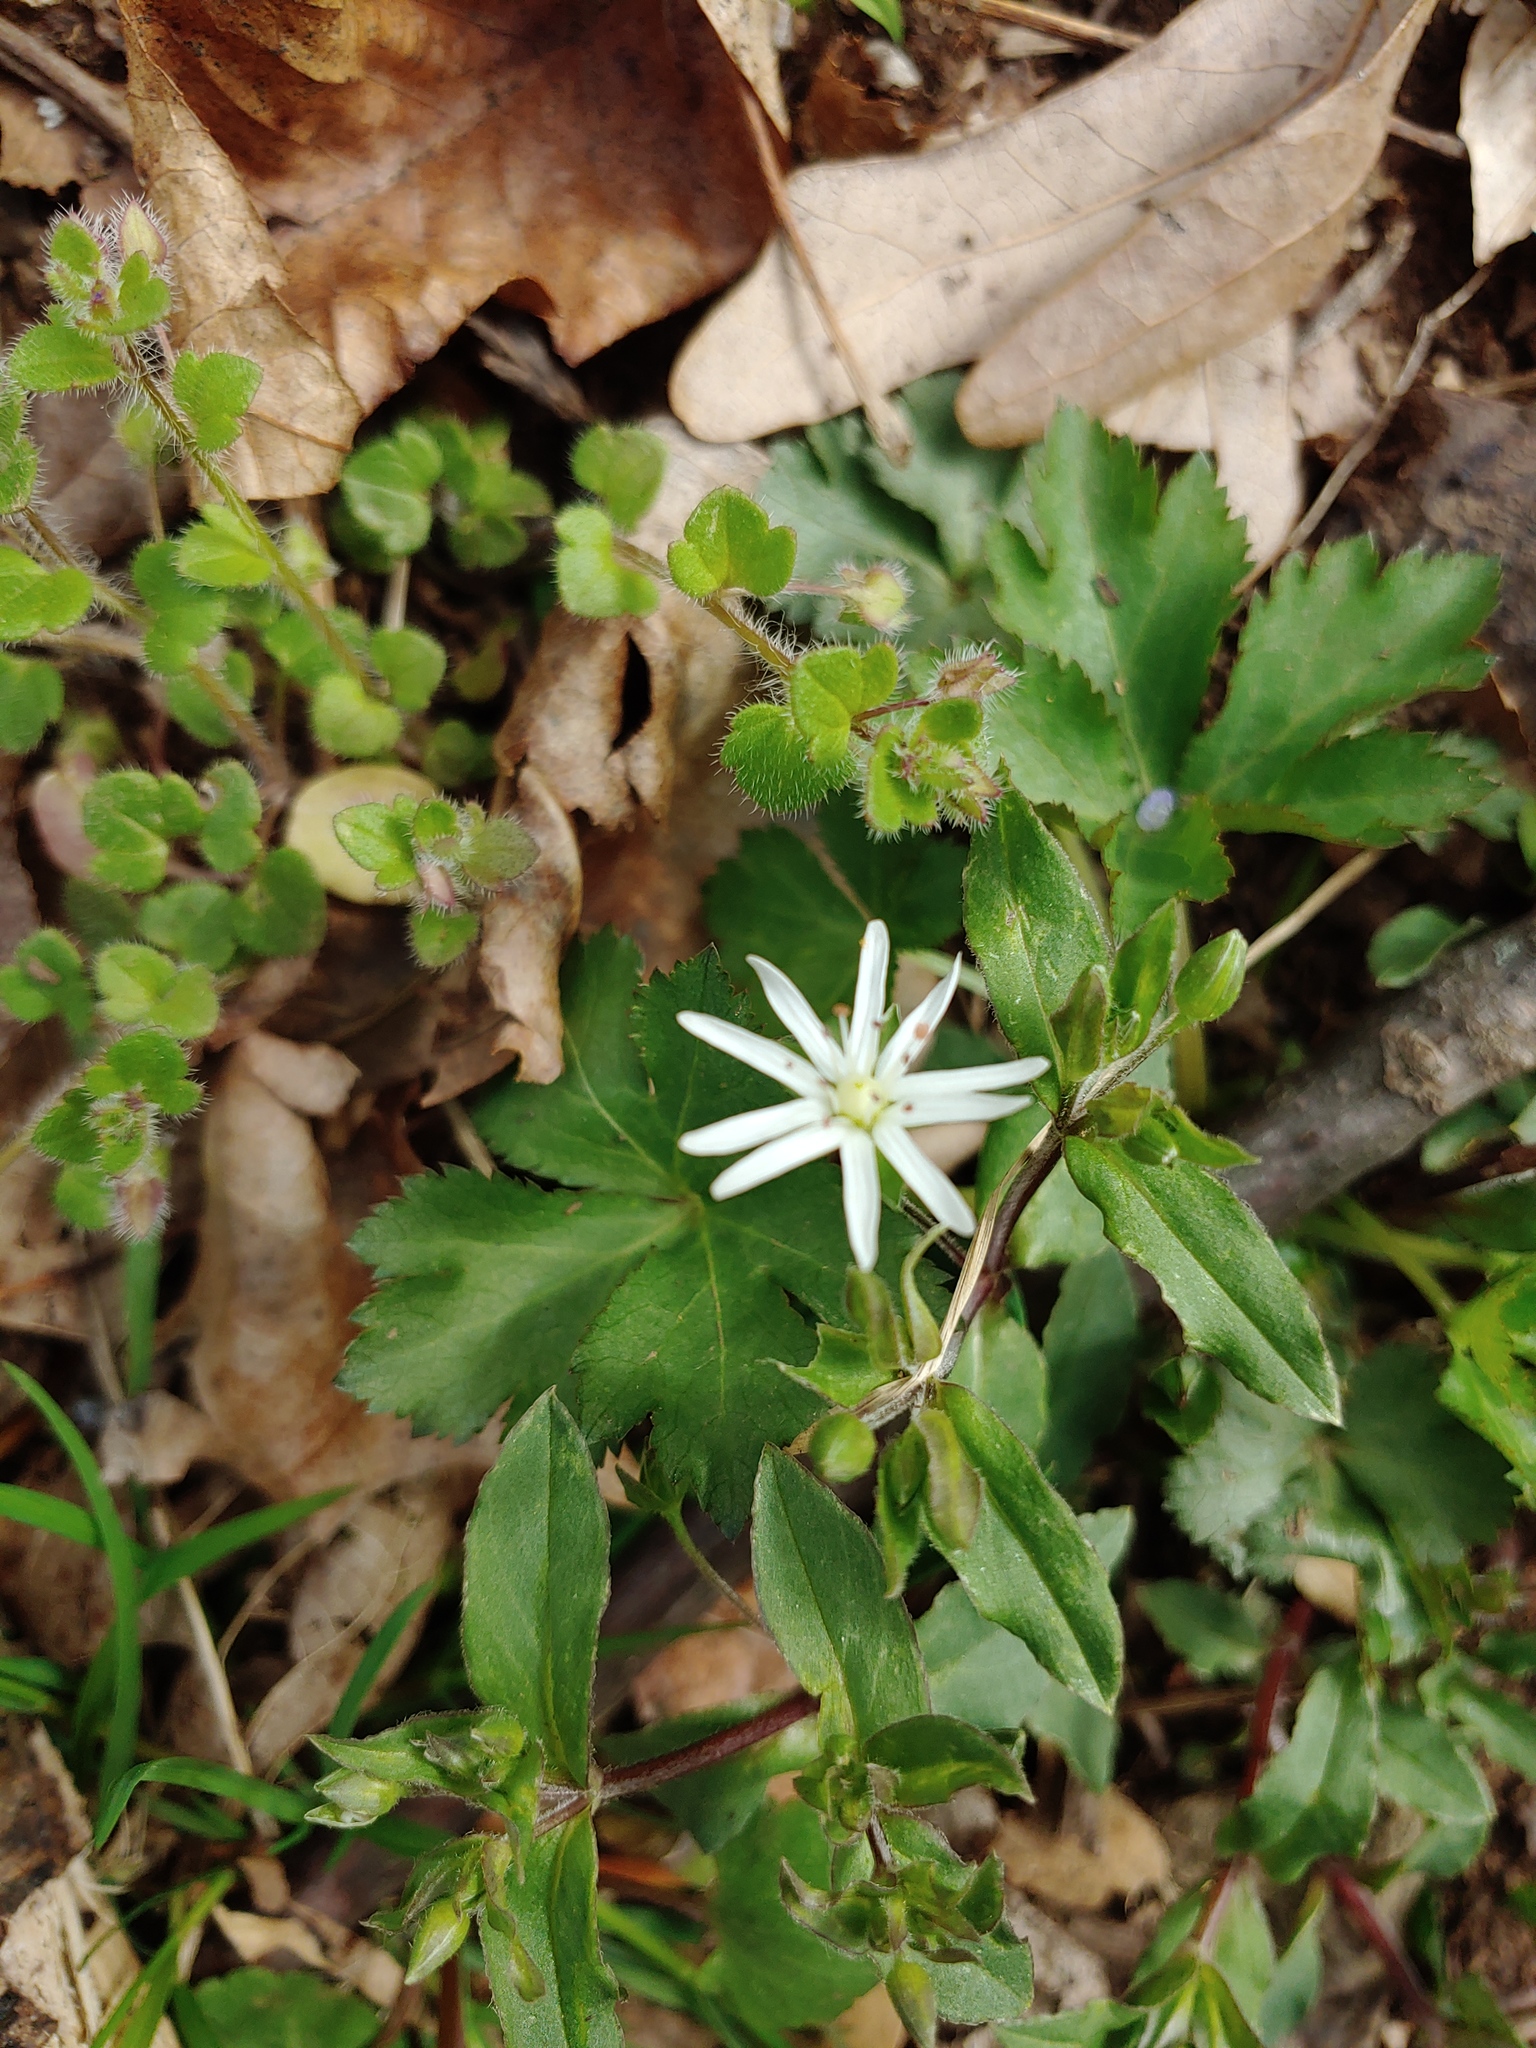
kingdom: Plantae
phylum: Tracheophyta
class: Magnoliopsida
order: Caryophyllales
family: Caryophyllaceae
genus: Stellaria
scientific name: Stellaria pubera
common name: Star chickweed
